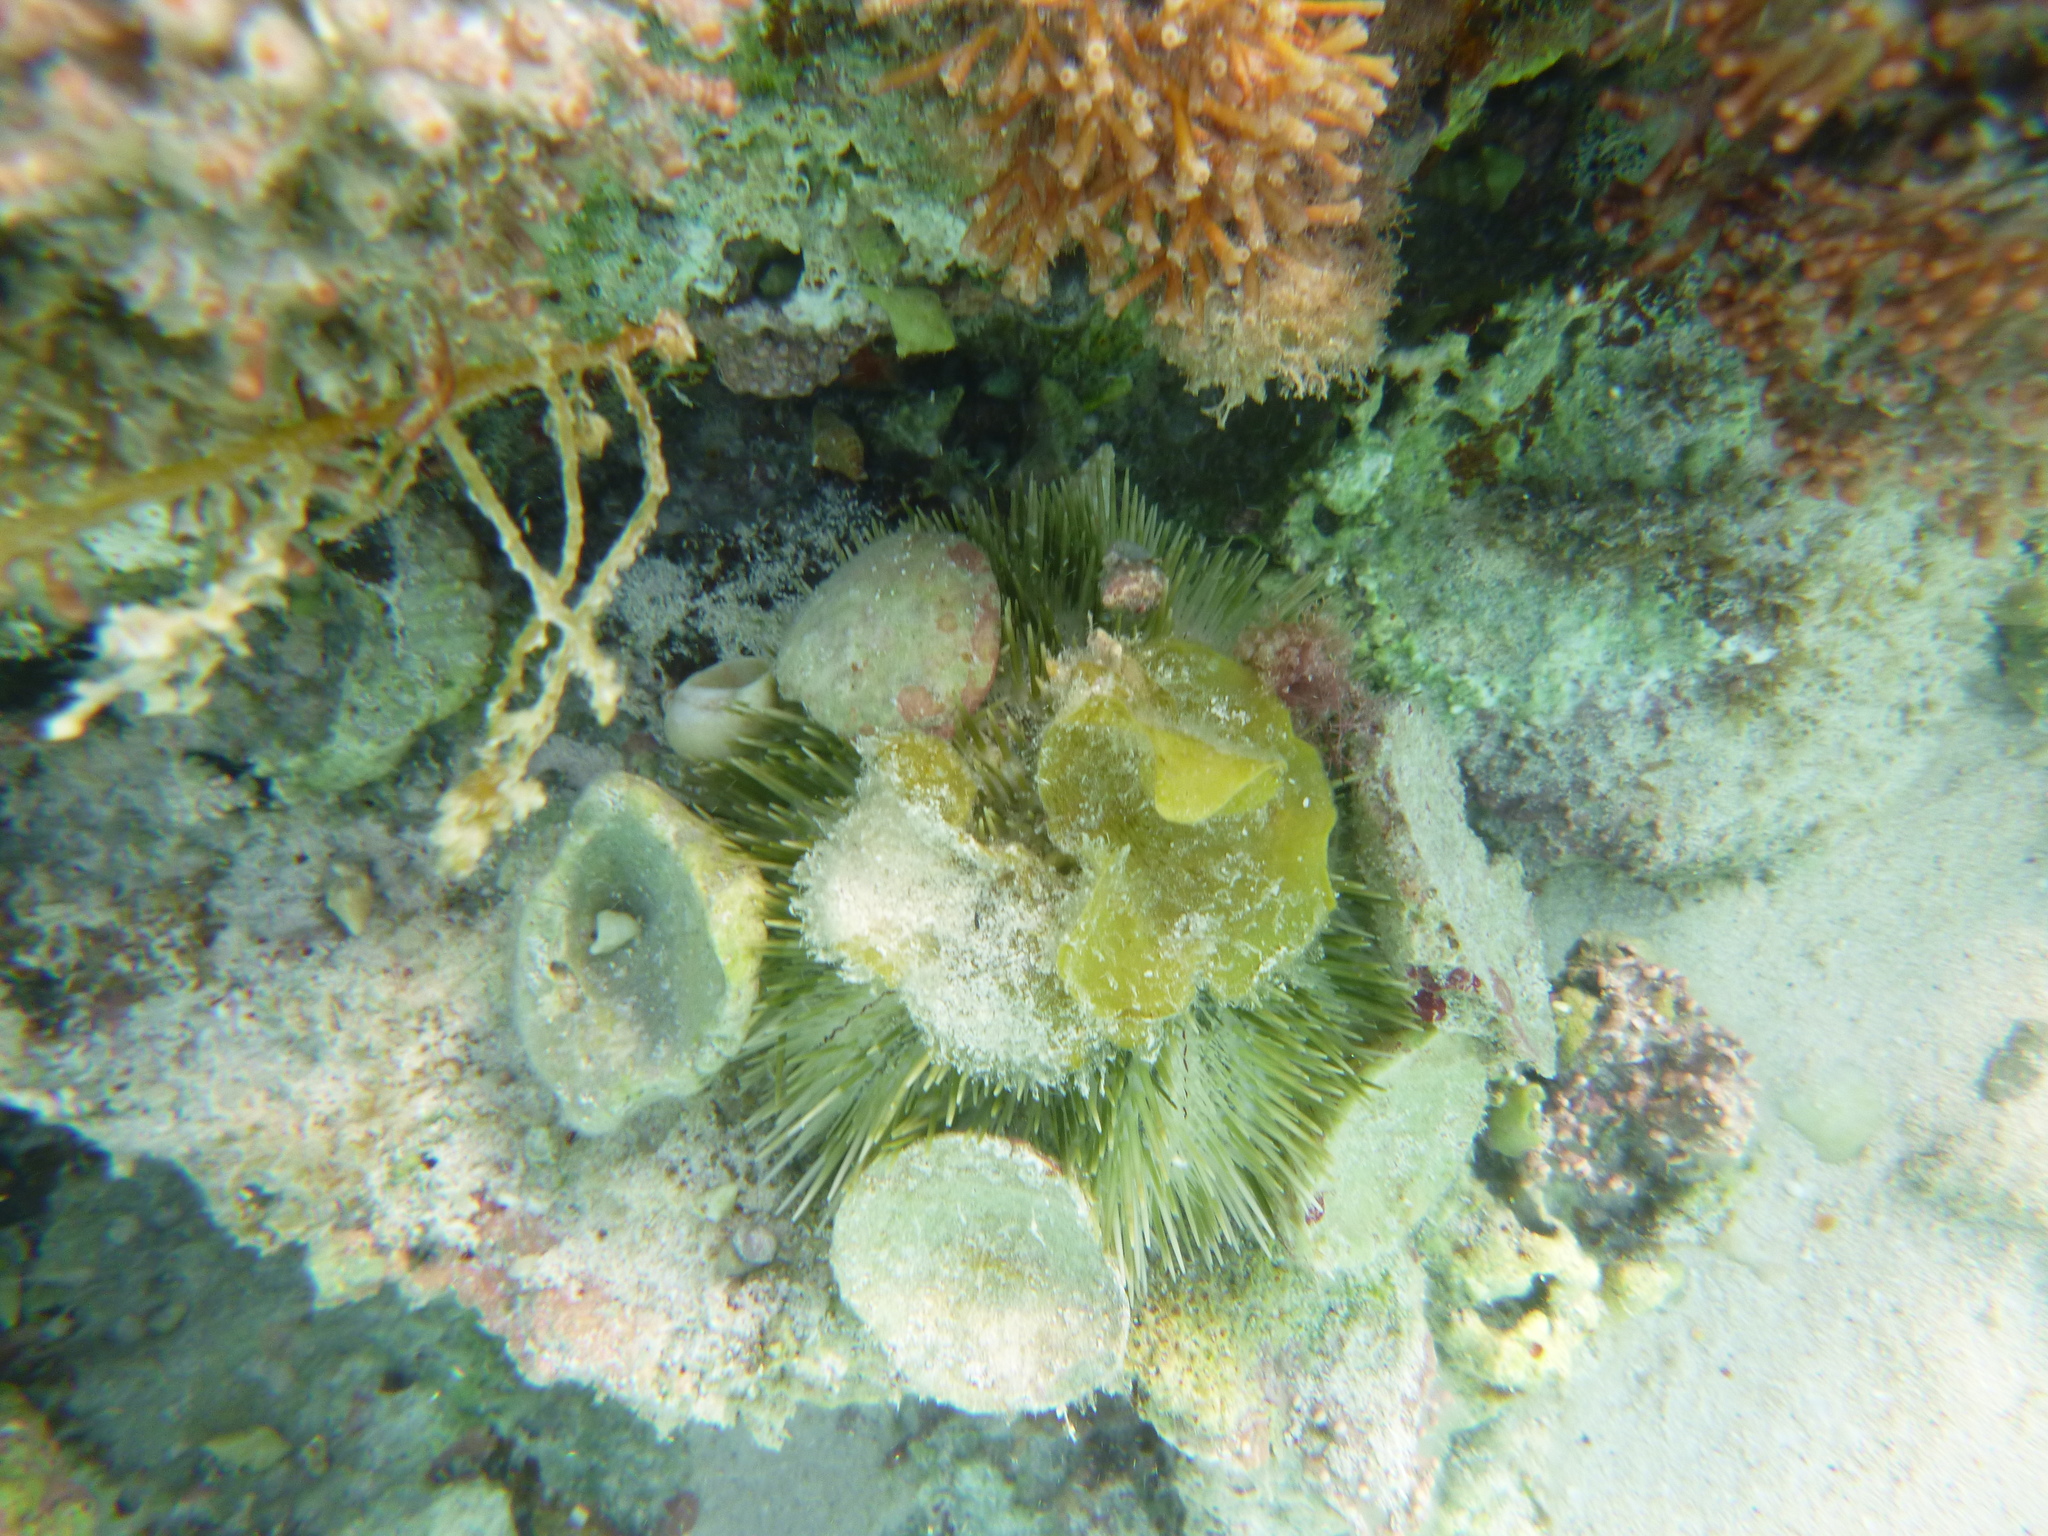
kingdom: Animalia
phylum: Echinodermata
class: Echinoidea
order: Camarodonta
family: Toxopneustidae
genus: Lytechinus
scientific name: Lytechinus variegatus
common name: Variegated urchin
